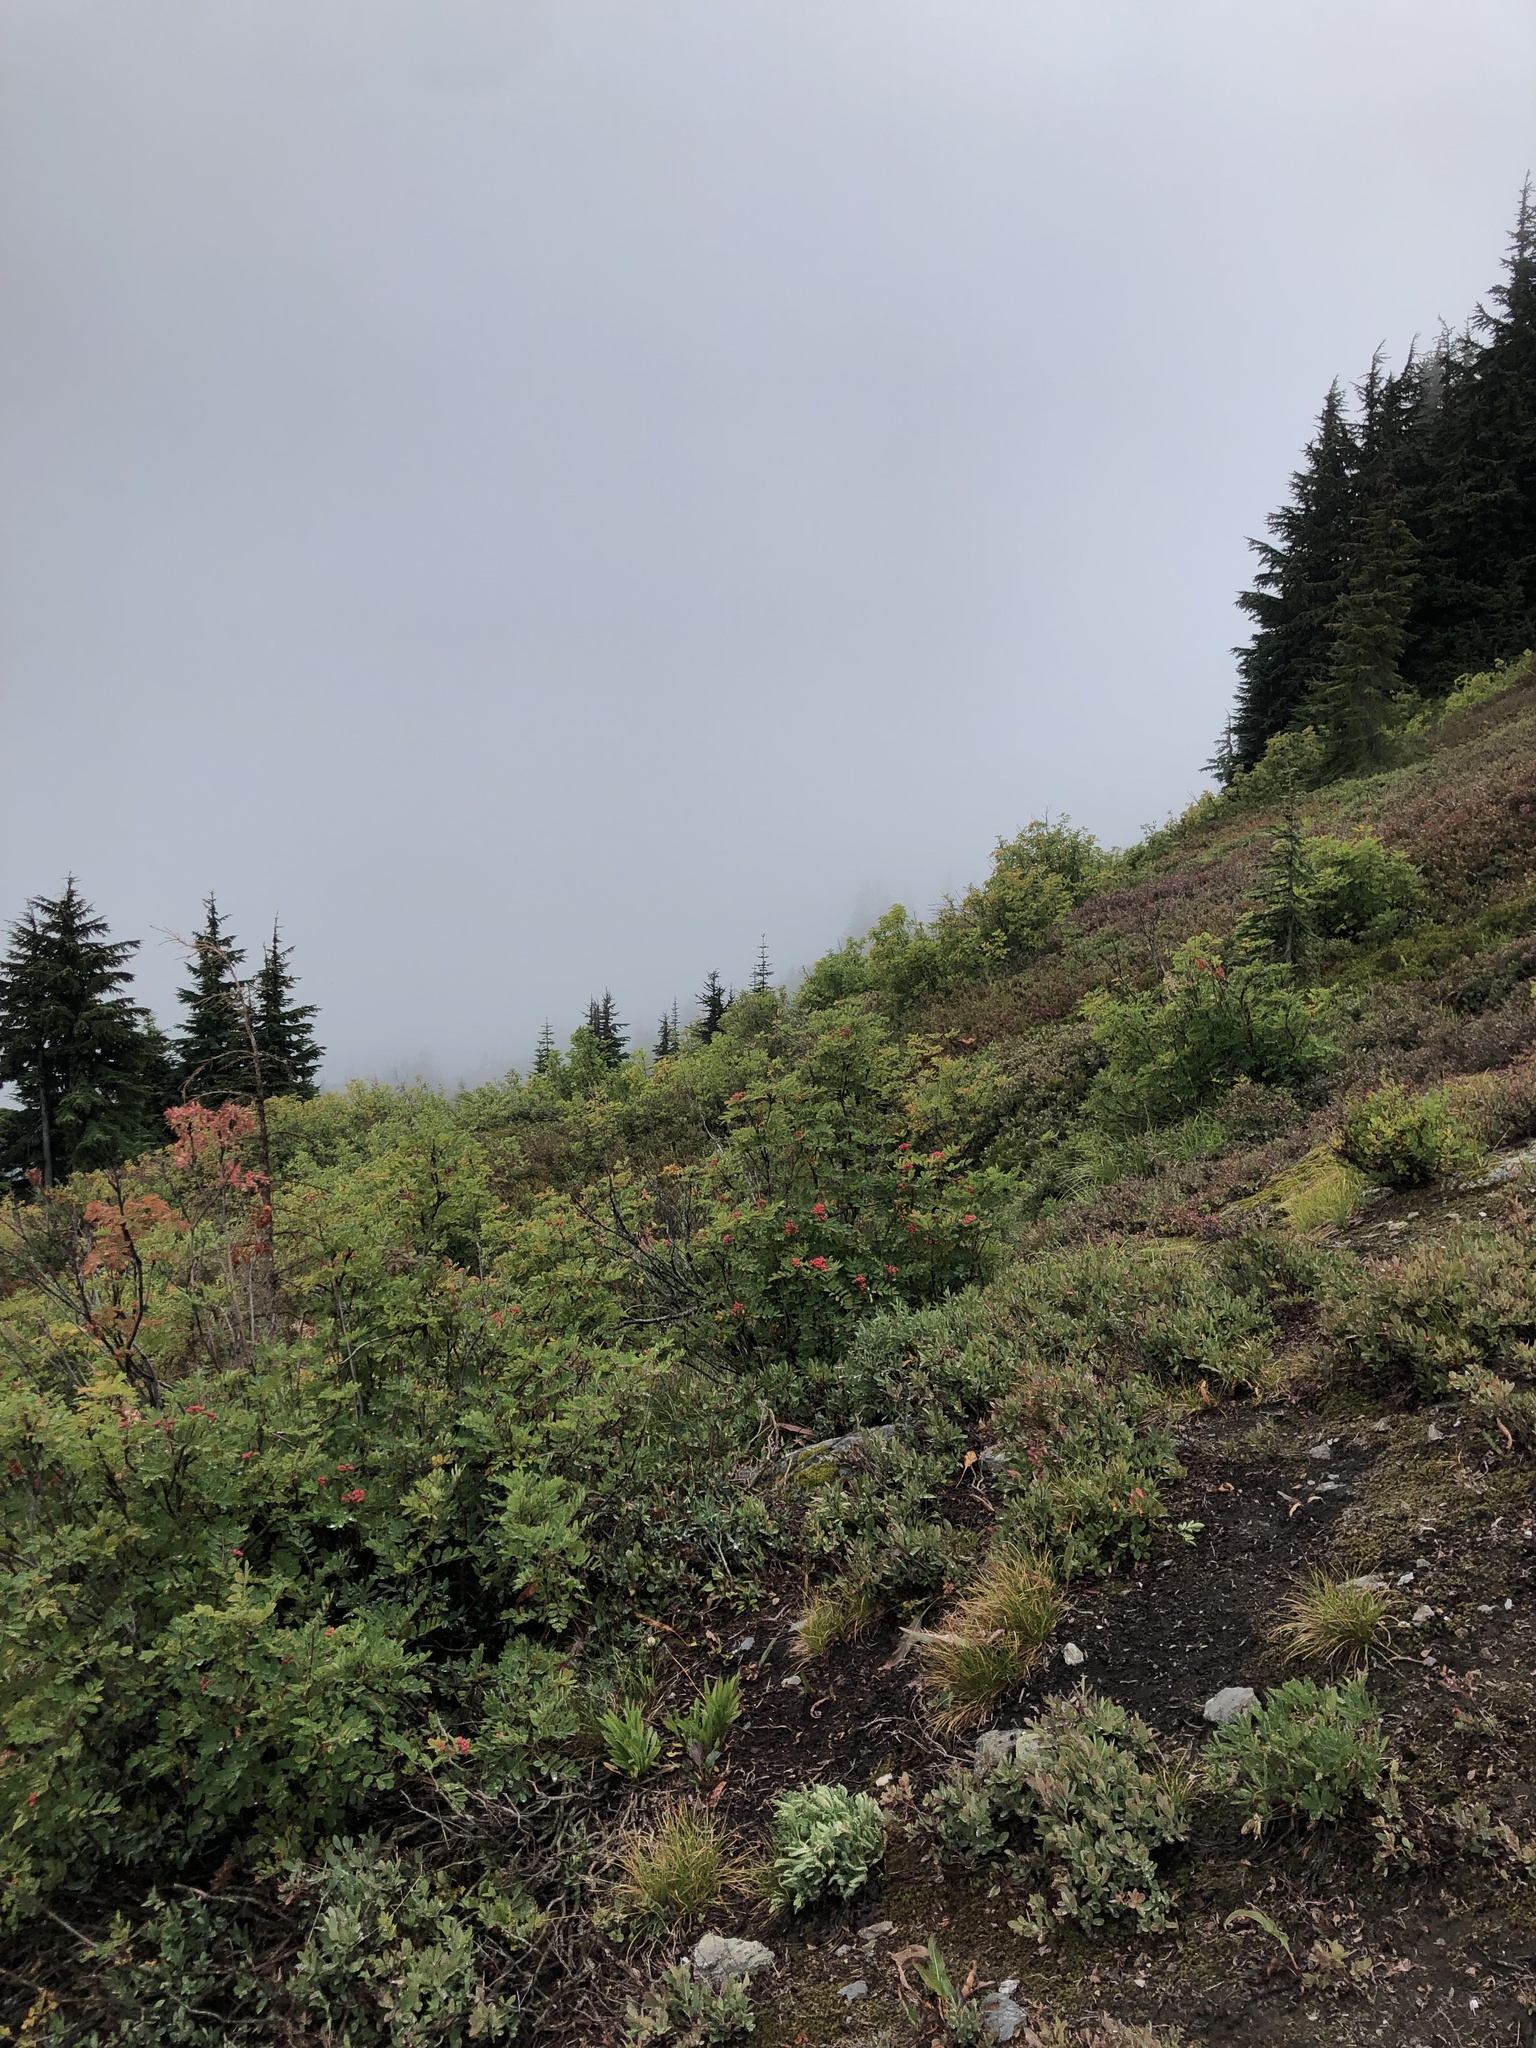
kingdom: Animalia
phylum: Chordata
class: Mammalia
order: Carnivora
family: Ursidae
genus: Ursus
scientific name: Ursus americanus
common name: American black bear
